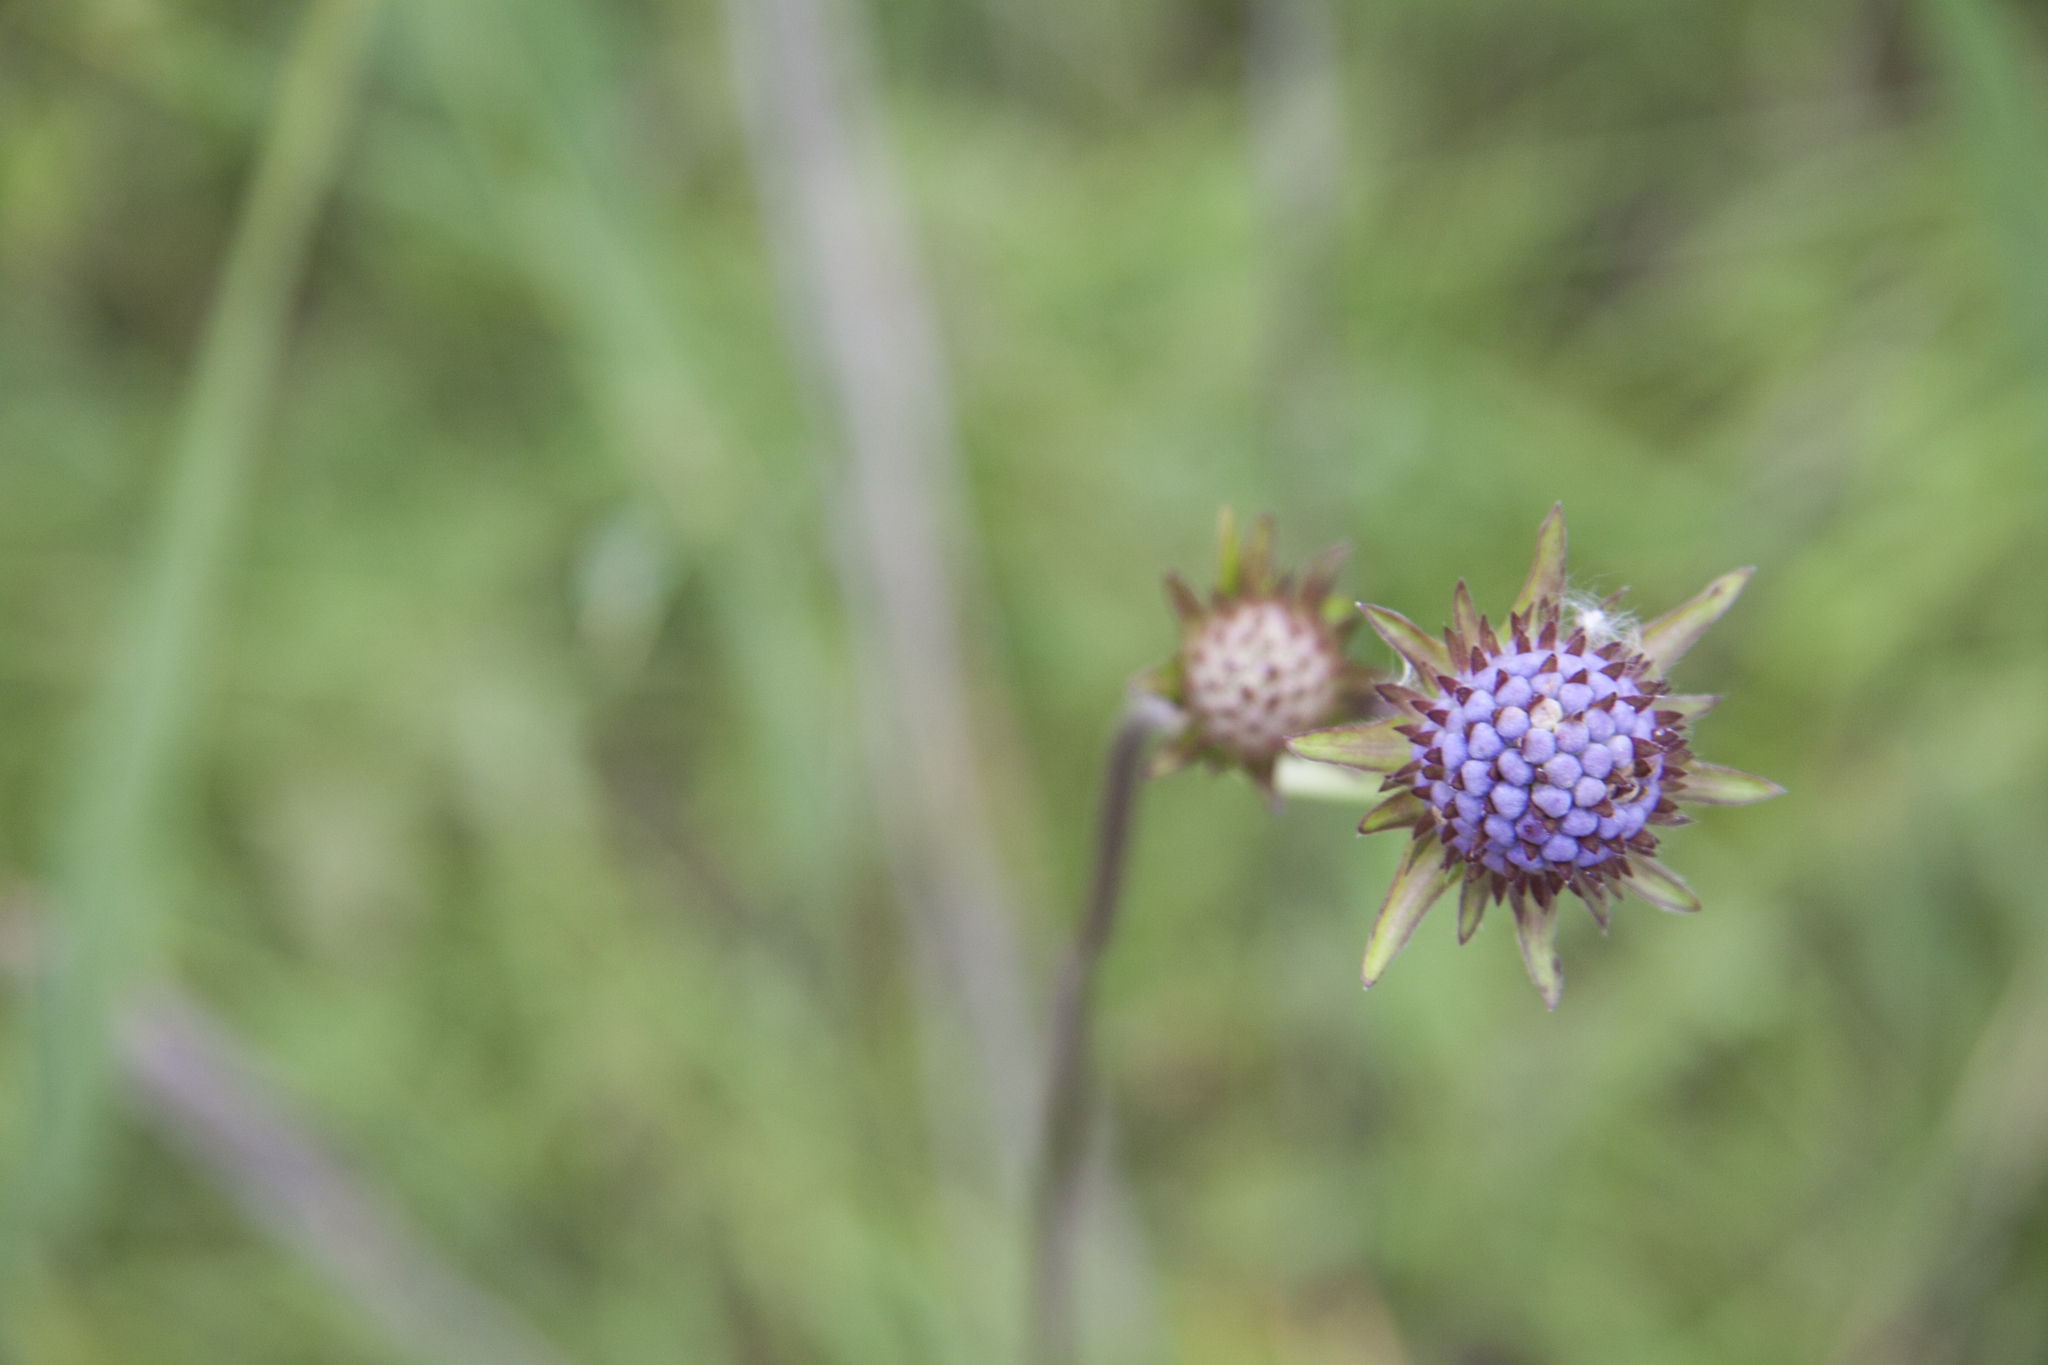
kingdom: Plantae
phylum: Tracheophyta
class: Magnoliopsida
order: Dipsacales
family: Caprifoliaceae
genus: Succisa
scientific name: Succisa pratensis
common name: Devil's-bit
